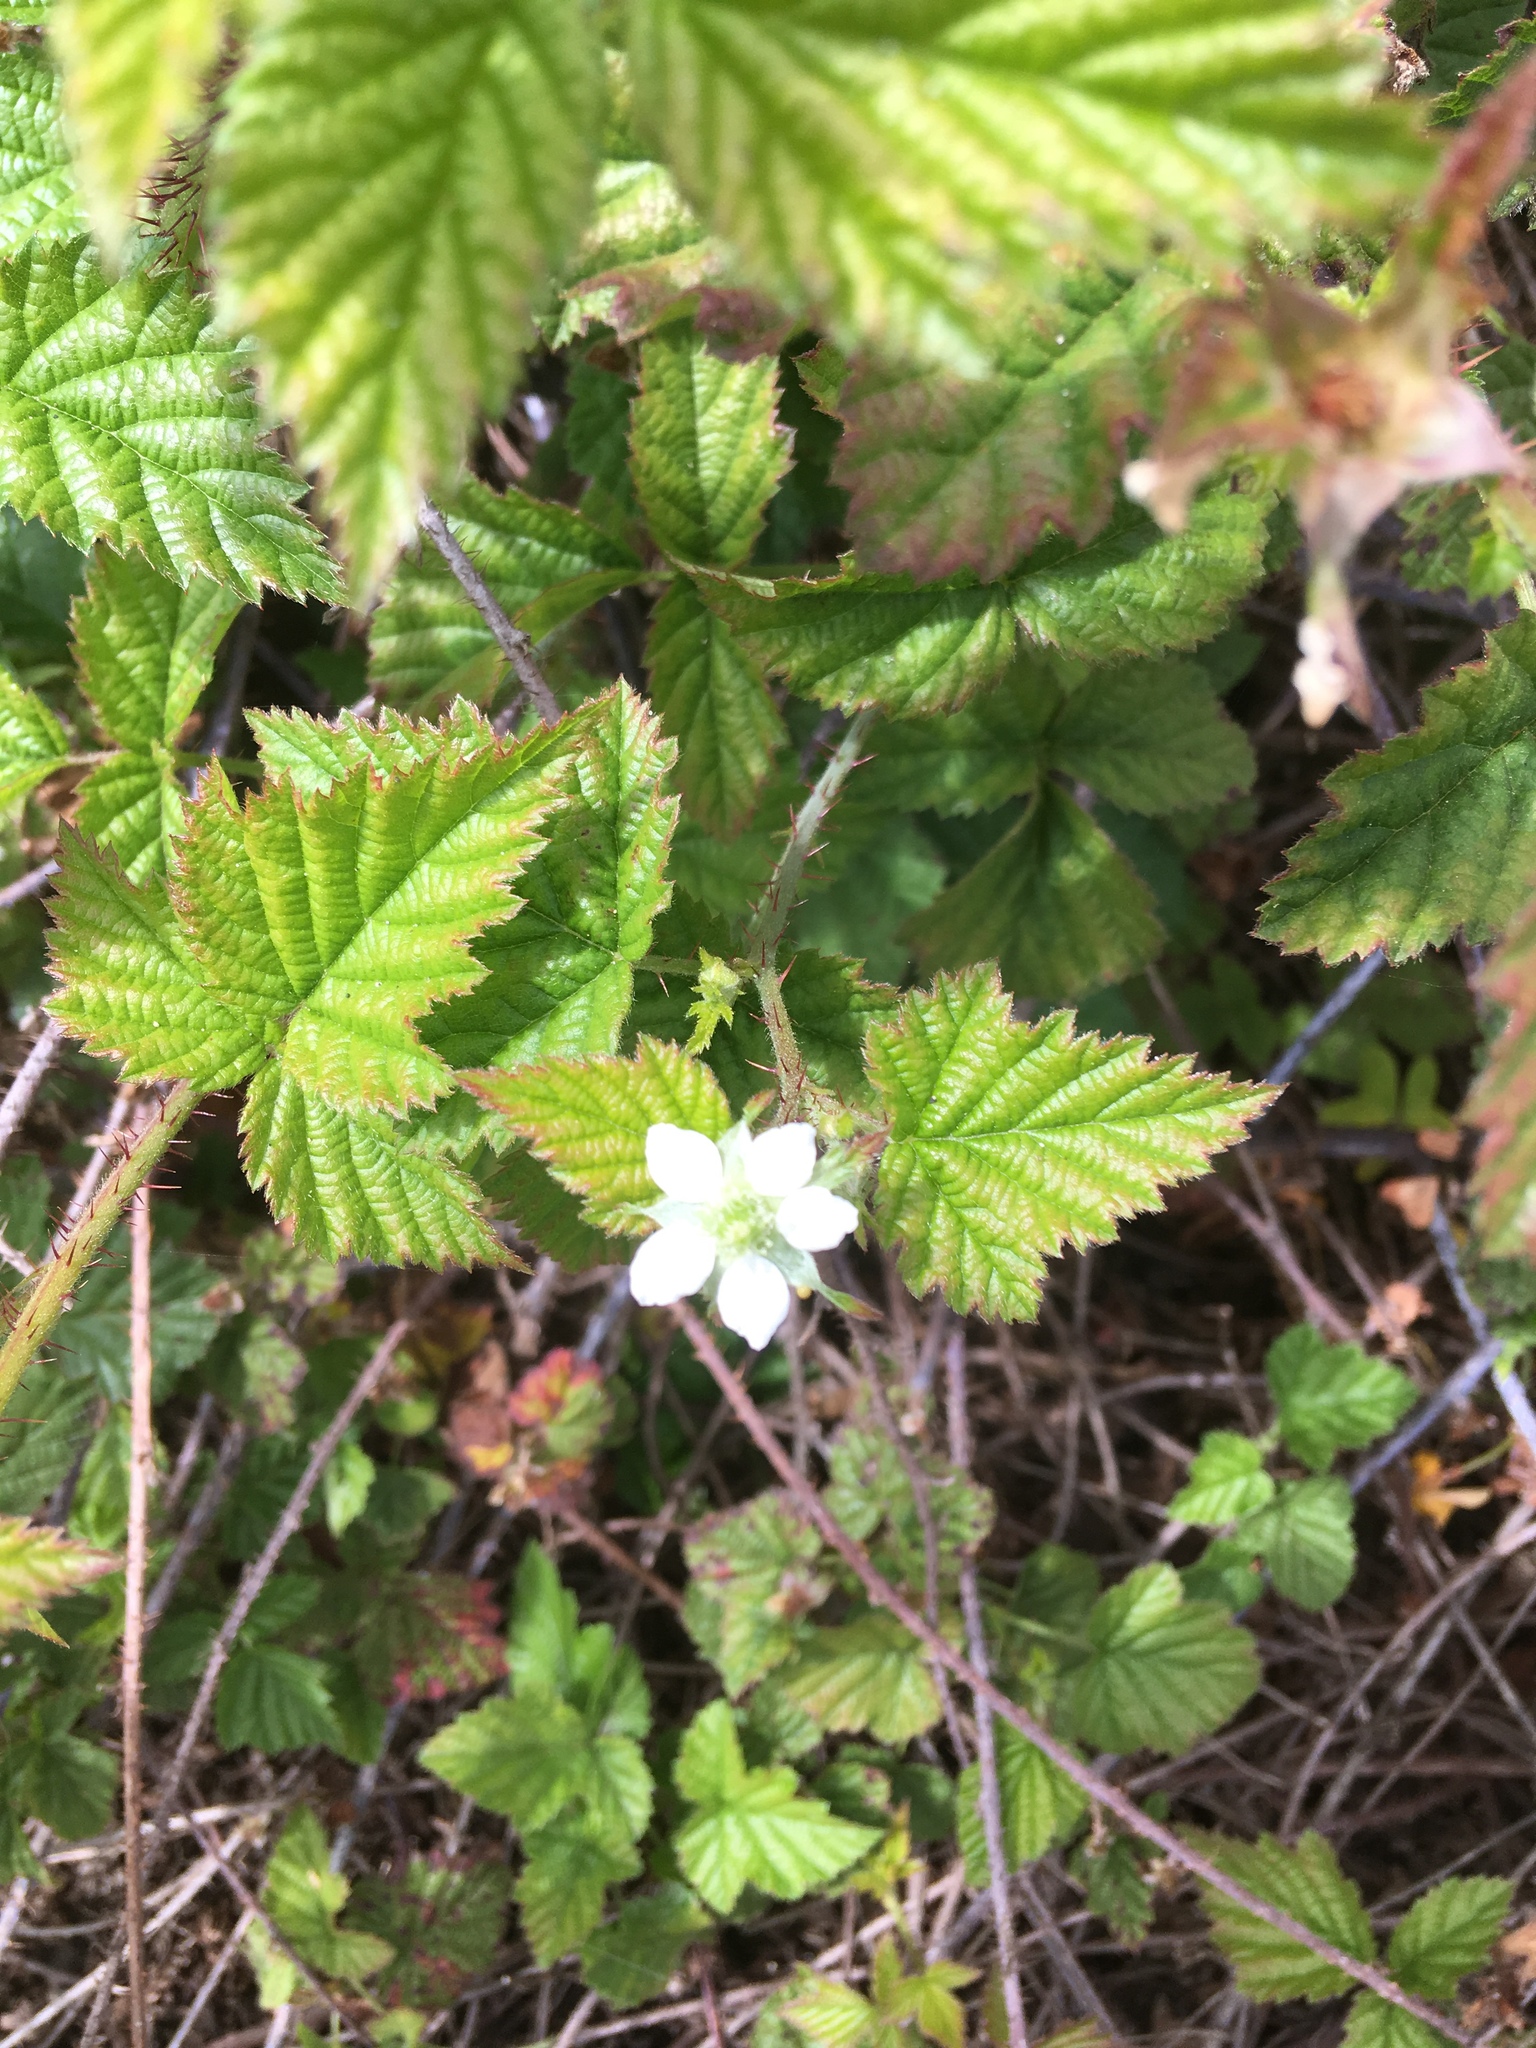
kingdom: Plantae
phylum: Tracheophyta
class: Magnoliopsida
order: Rosales
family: Rosaceae
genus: Rubus
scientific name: Rubus ursinus
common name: Pacific blackberry
